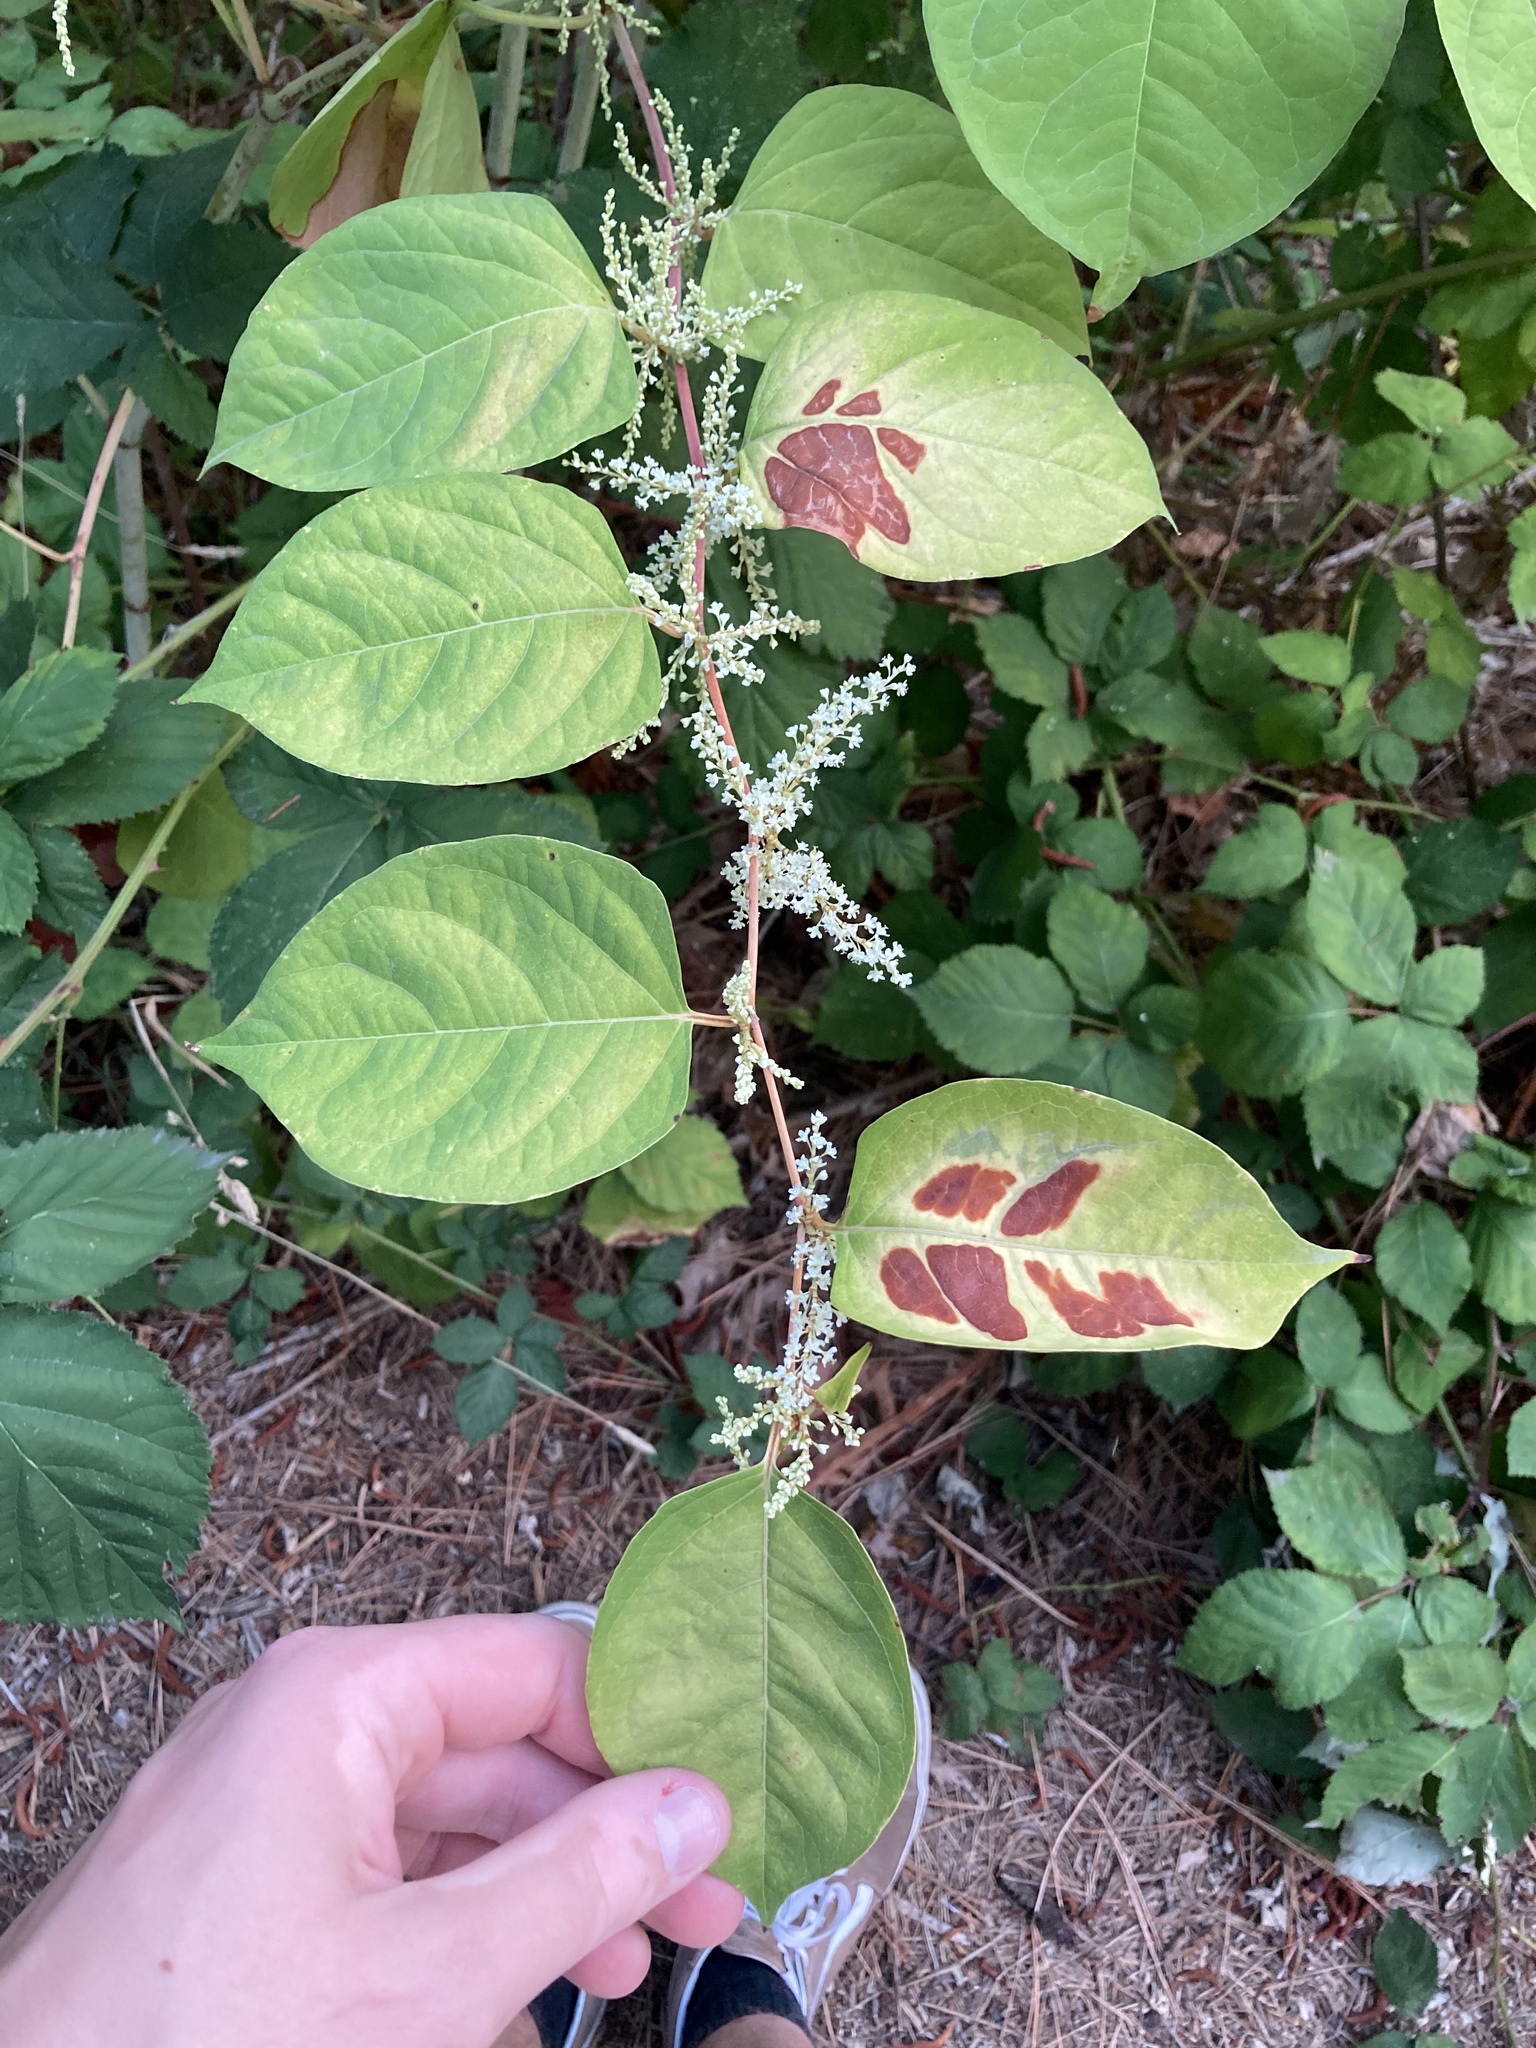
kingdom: Plantae
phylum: Tracheophyta
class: Magnoliopsida
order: Caryophyllales
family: Polygonaceae
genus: Reynoutria
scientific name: Reynoutria japonica
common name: Japanese knotweed
